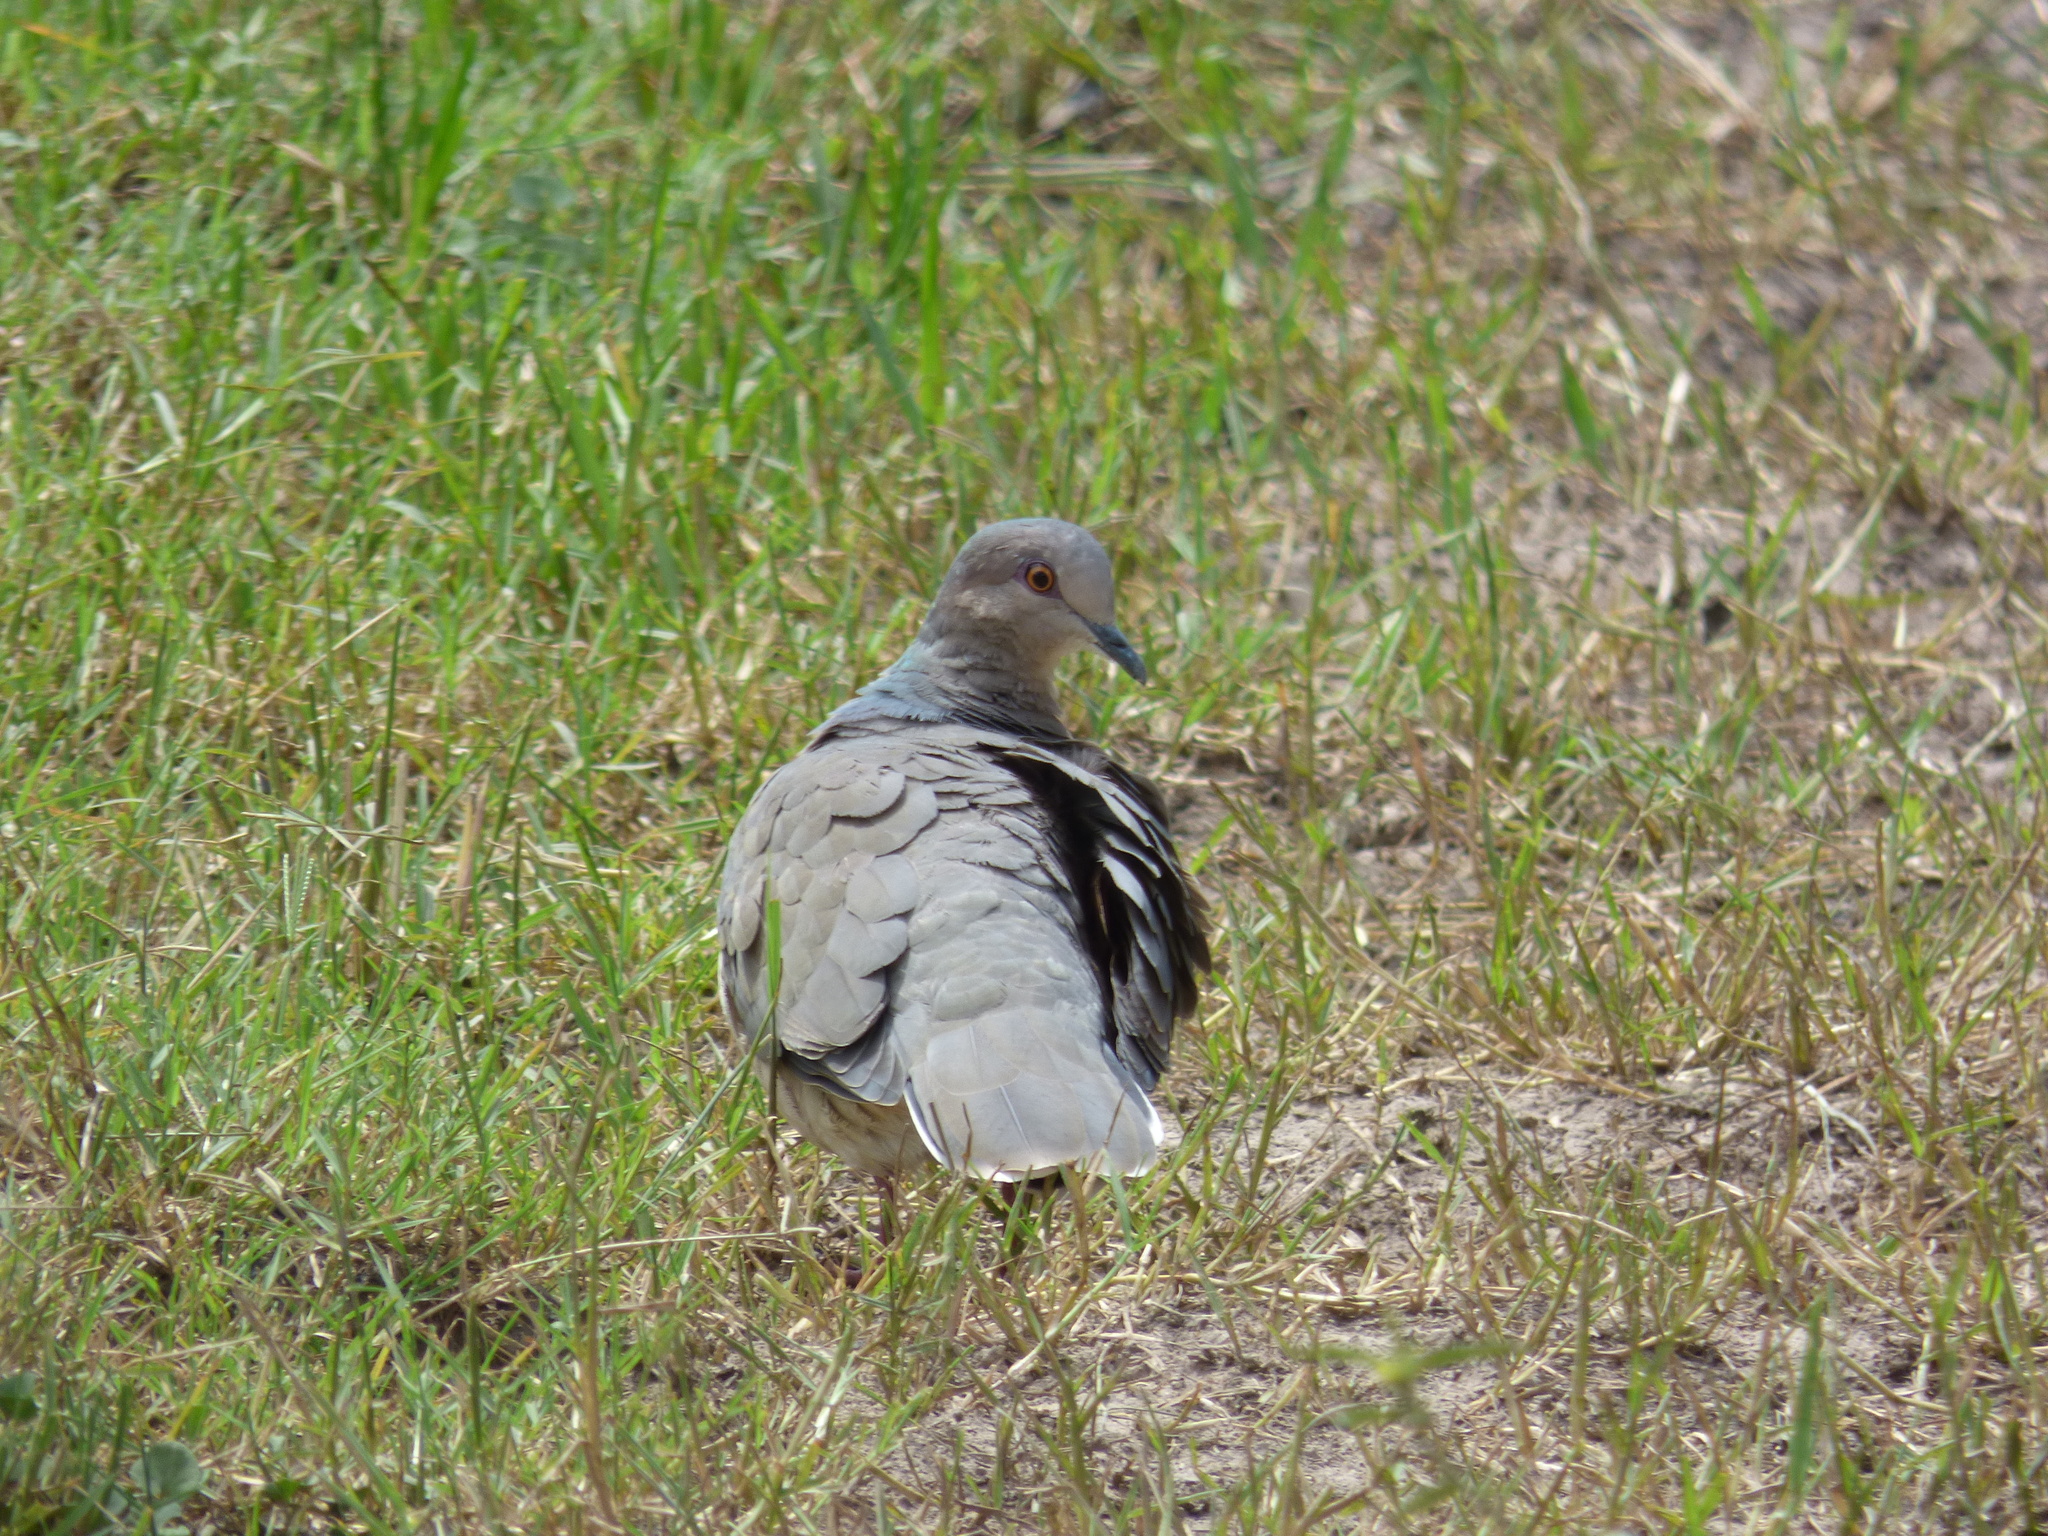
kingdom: Animalia
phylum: Chordata
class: Aves
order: Columbiformes
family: Columbidae
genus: Leptotila
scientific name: Leptotila verreauxi
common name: White-tipped dove
